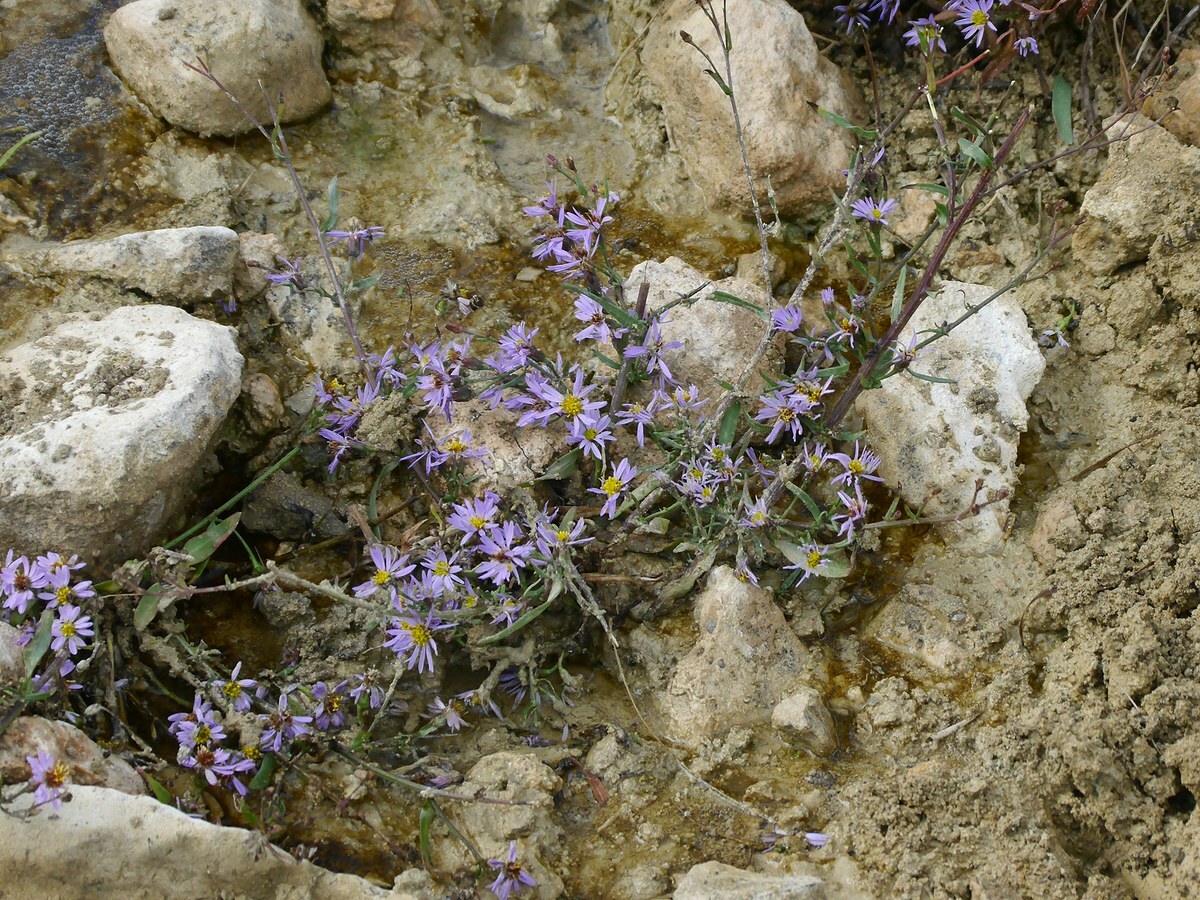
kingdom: Plantae
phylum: Tracheophyta
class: Magnoliopsida
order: Asterales
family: Asteraceae
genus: Tripolium
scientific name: Tripolium pannonicum
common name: Sea aster
